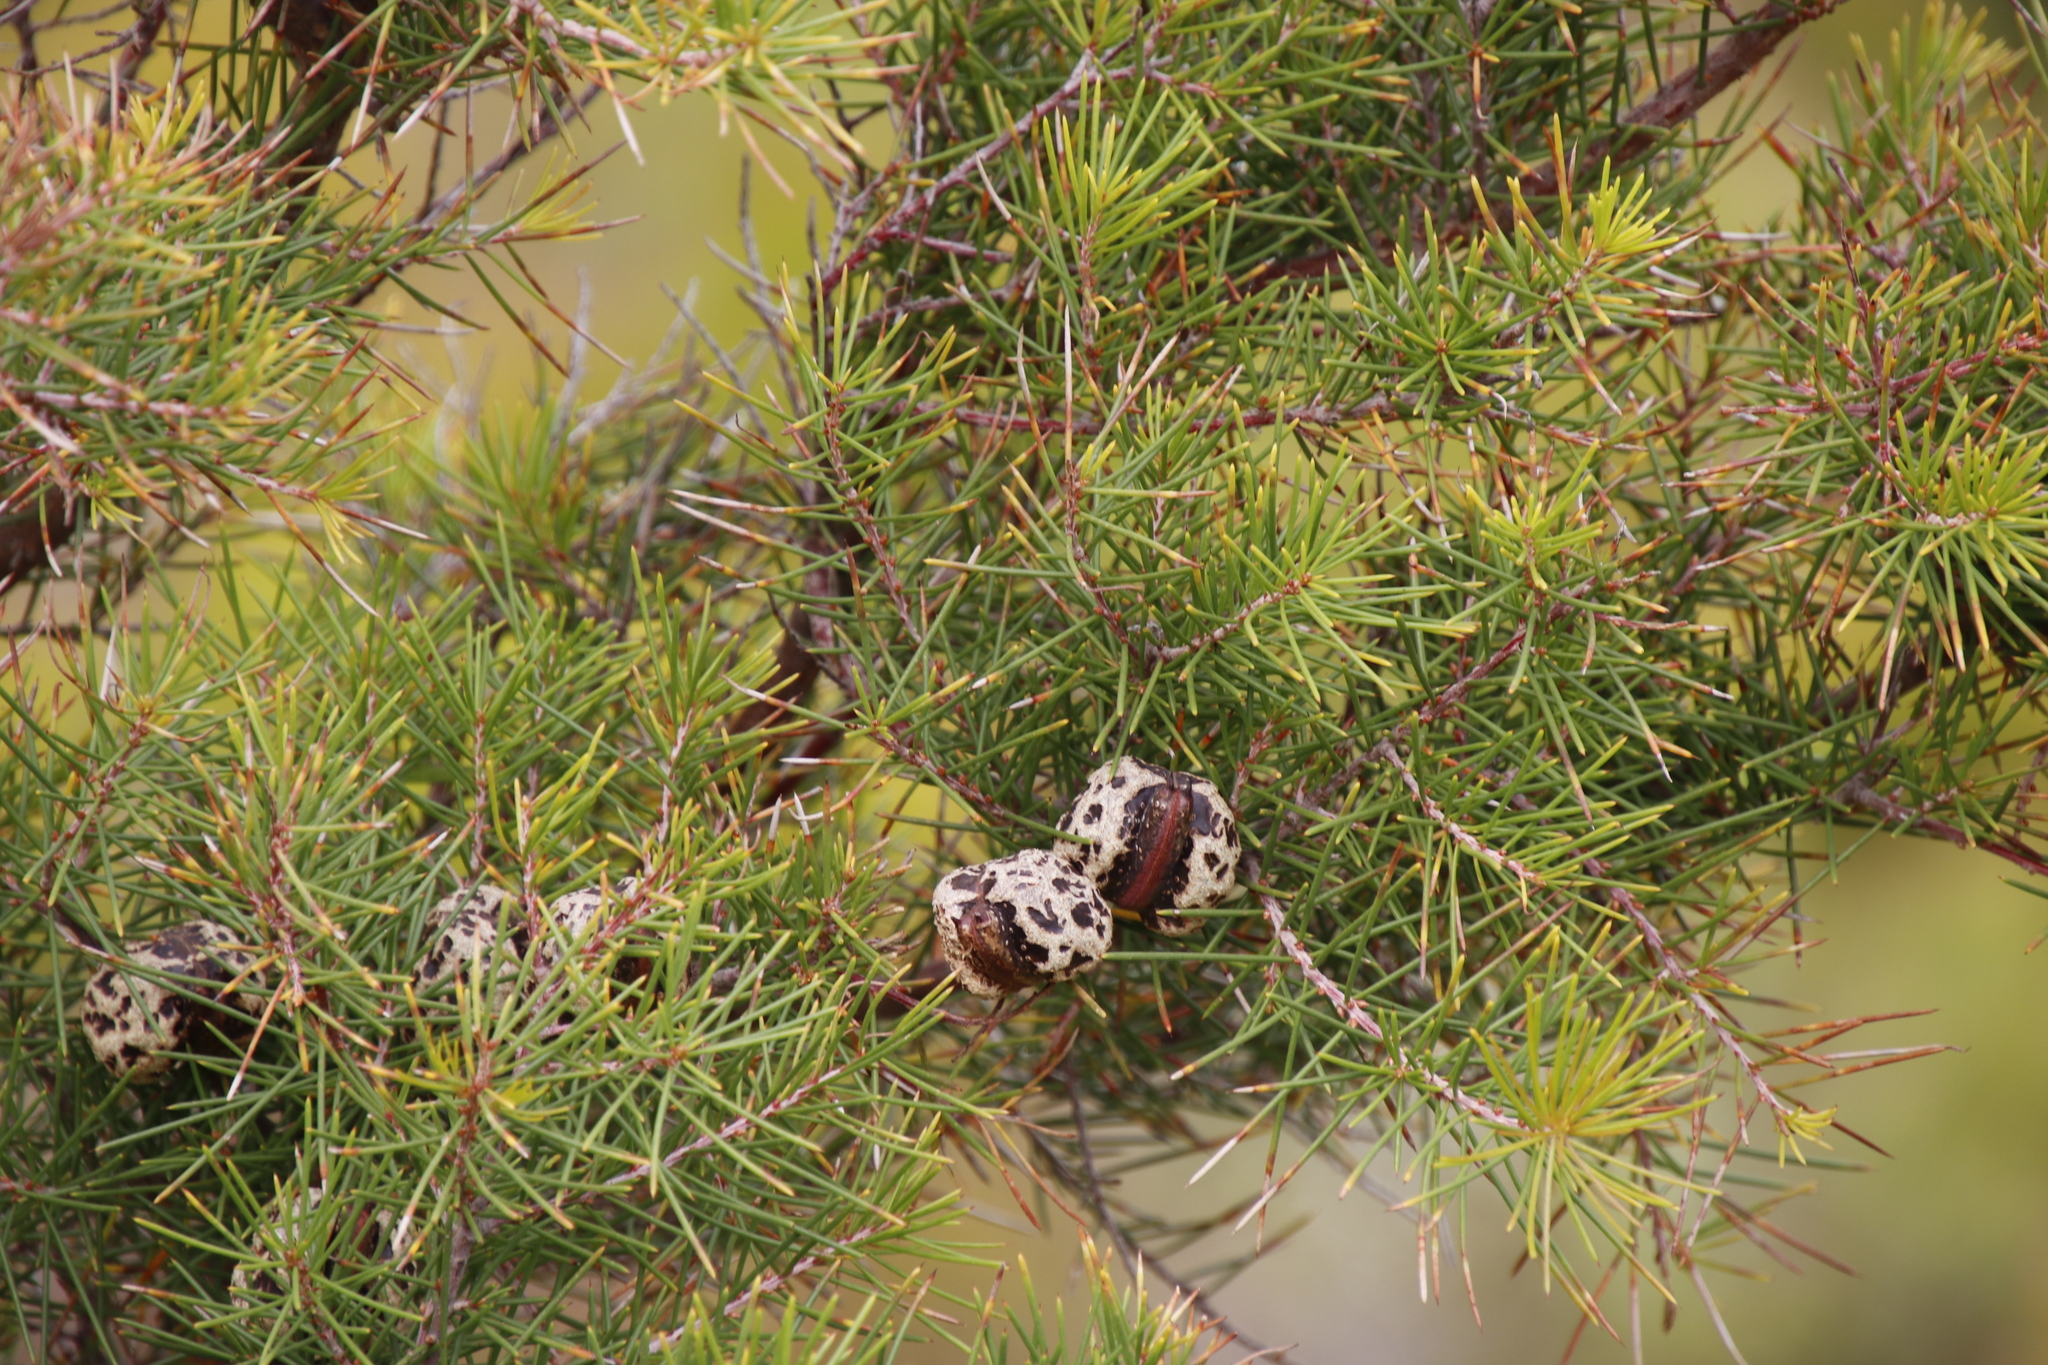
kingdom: Plantae
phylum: Tracheophyta
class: Magnoliopsida
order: Proteales
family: Proteaceae
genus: Hakea
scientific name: Hakea sericea
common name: Needle bush
